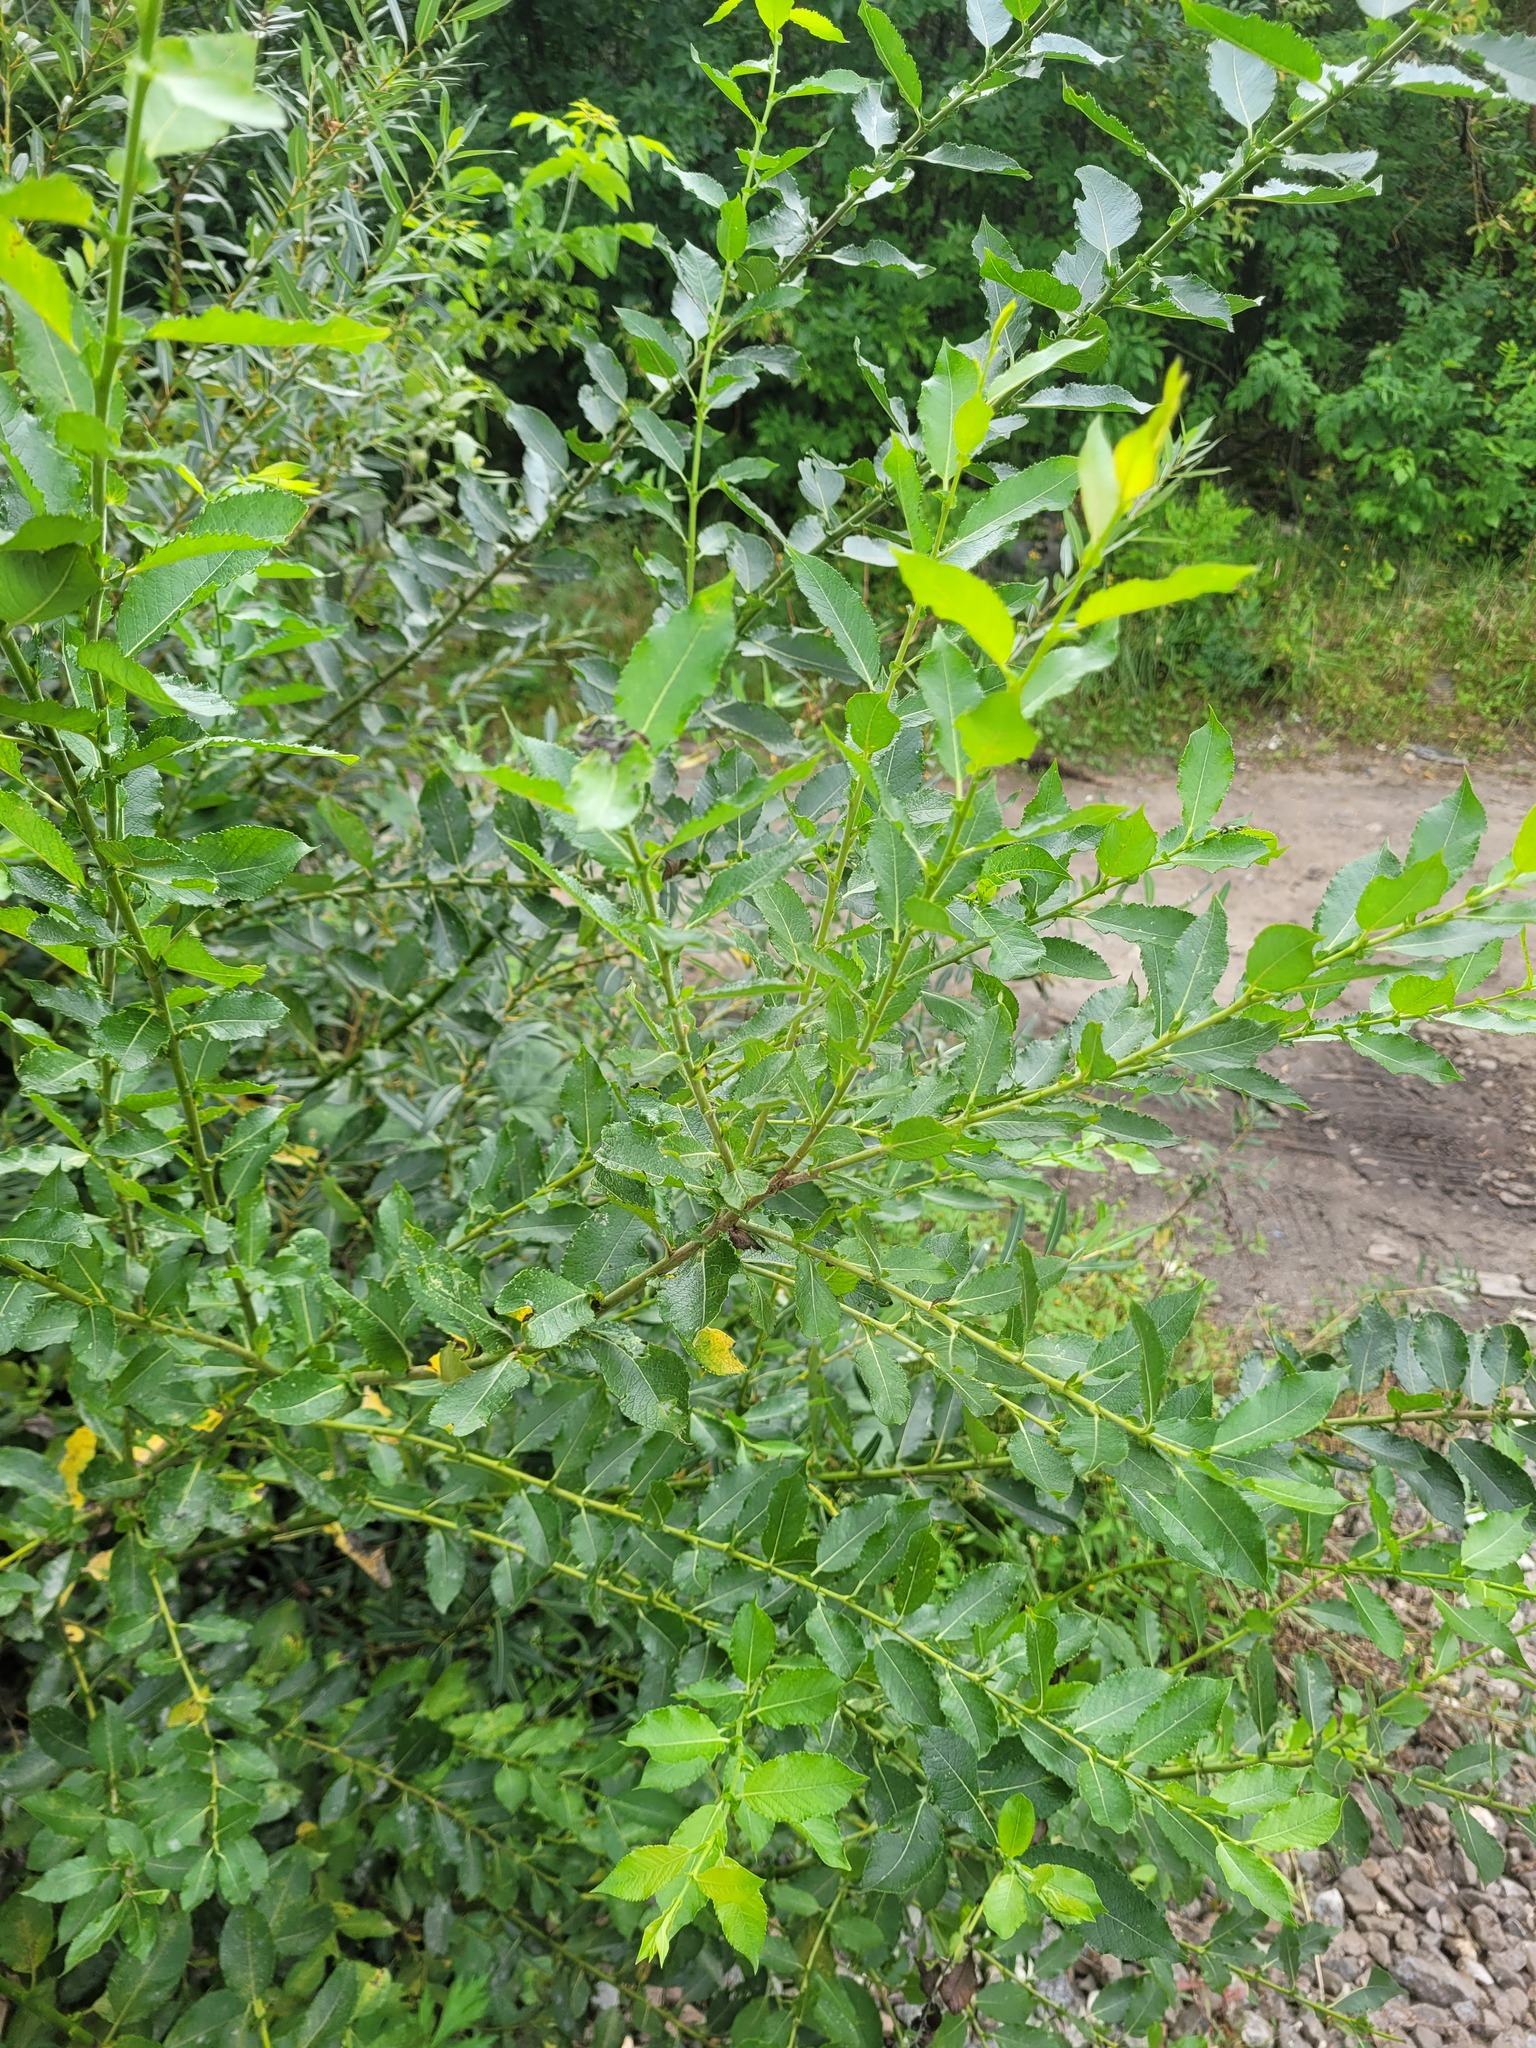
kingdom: Plantae
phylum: Tracheophyta
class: Magnoliopsida
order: Malpighiales
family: Salicaceae
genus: Salix
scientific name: Salix myrsinifolia
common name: Dark-leaved willow
